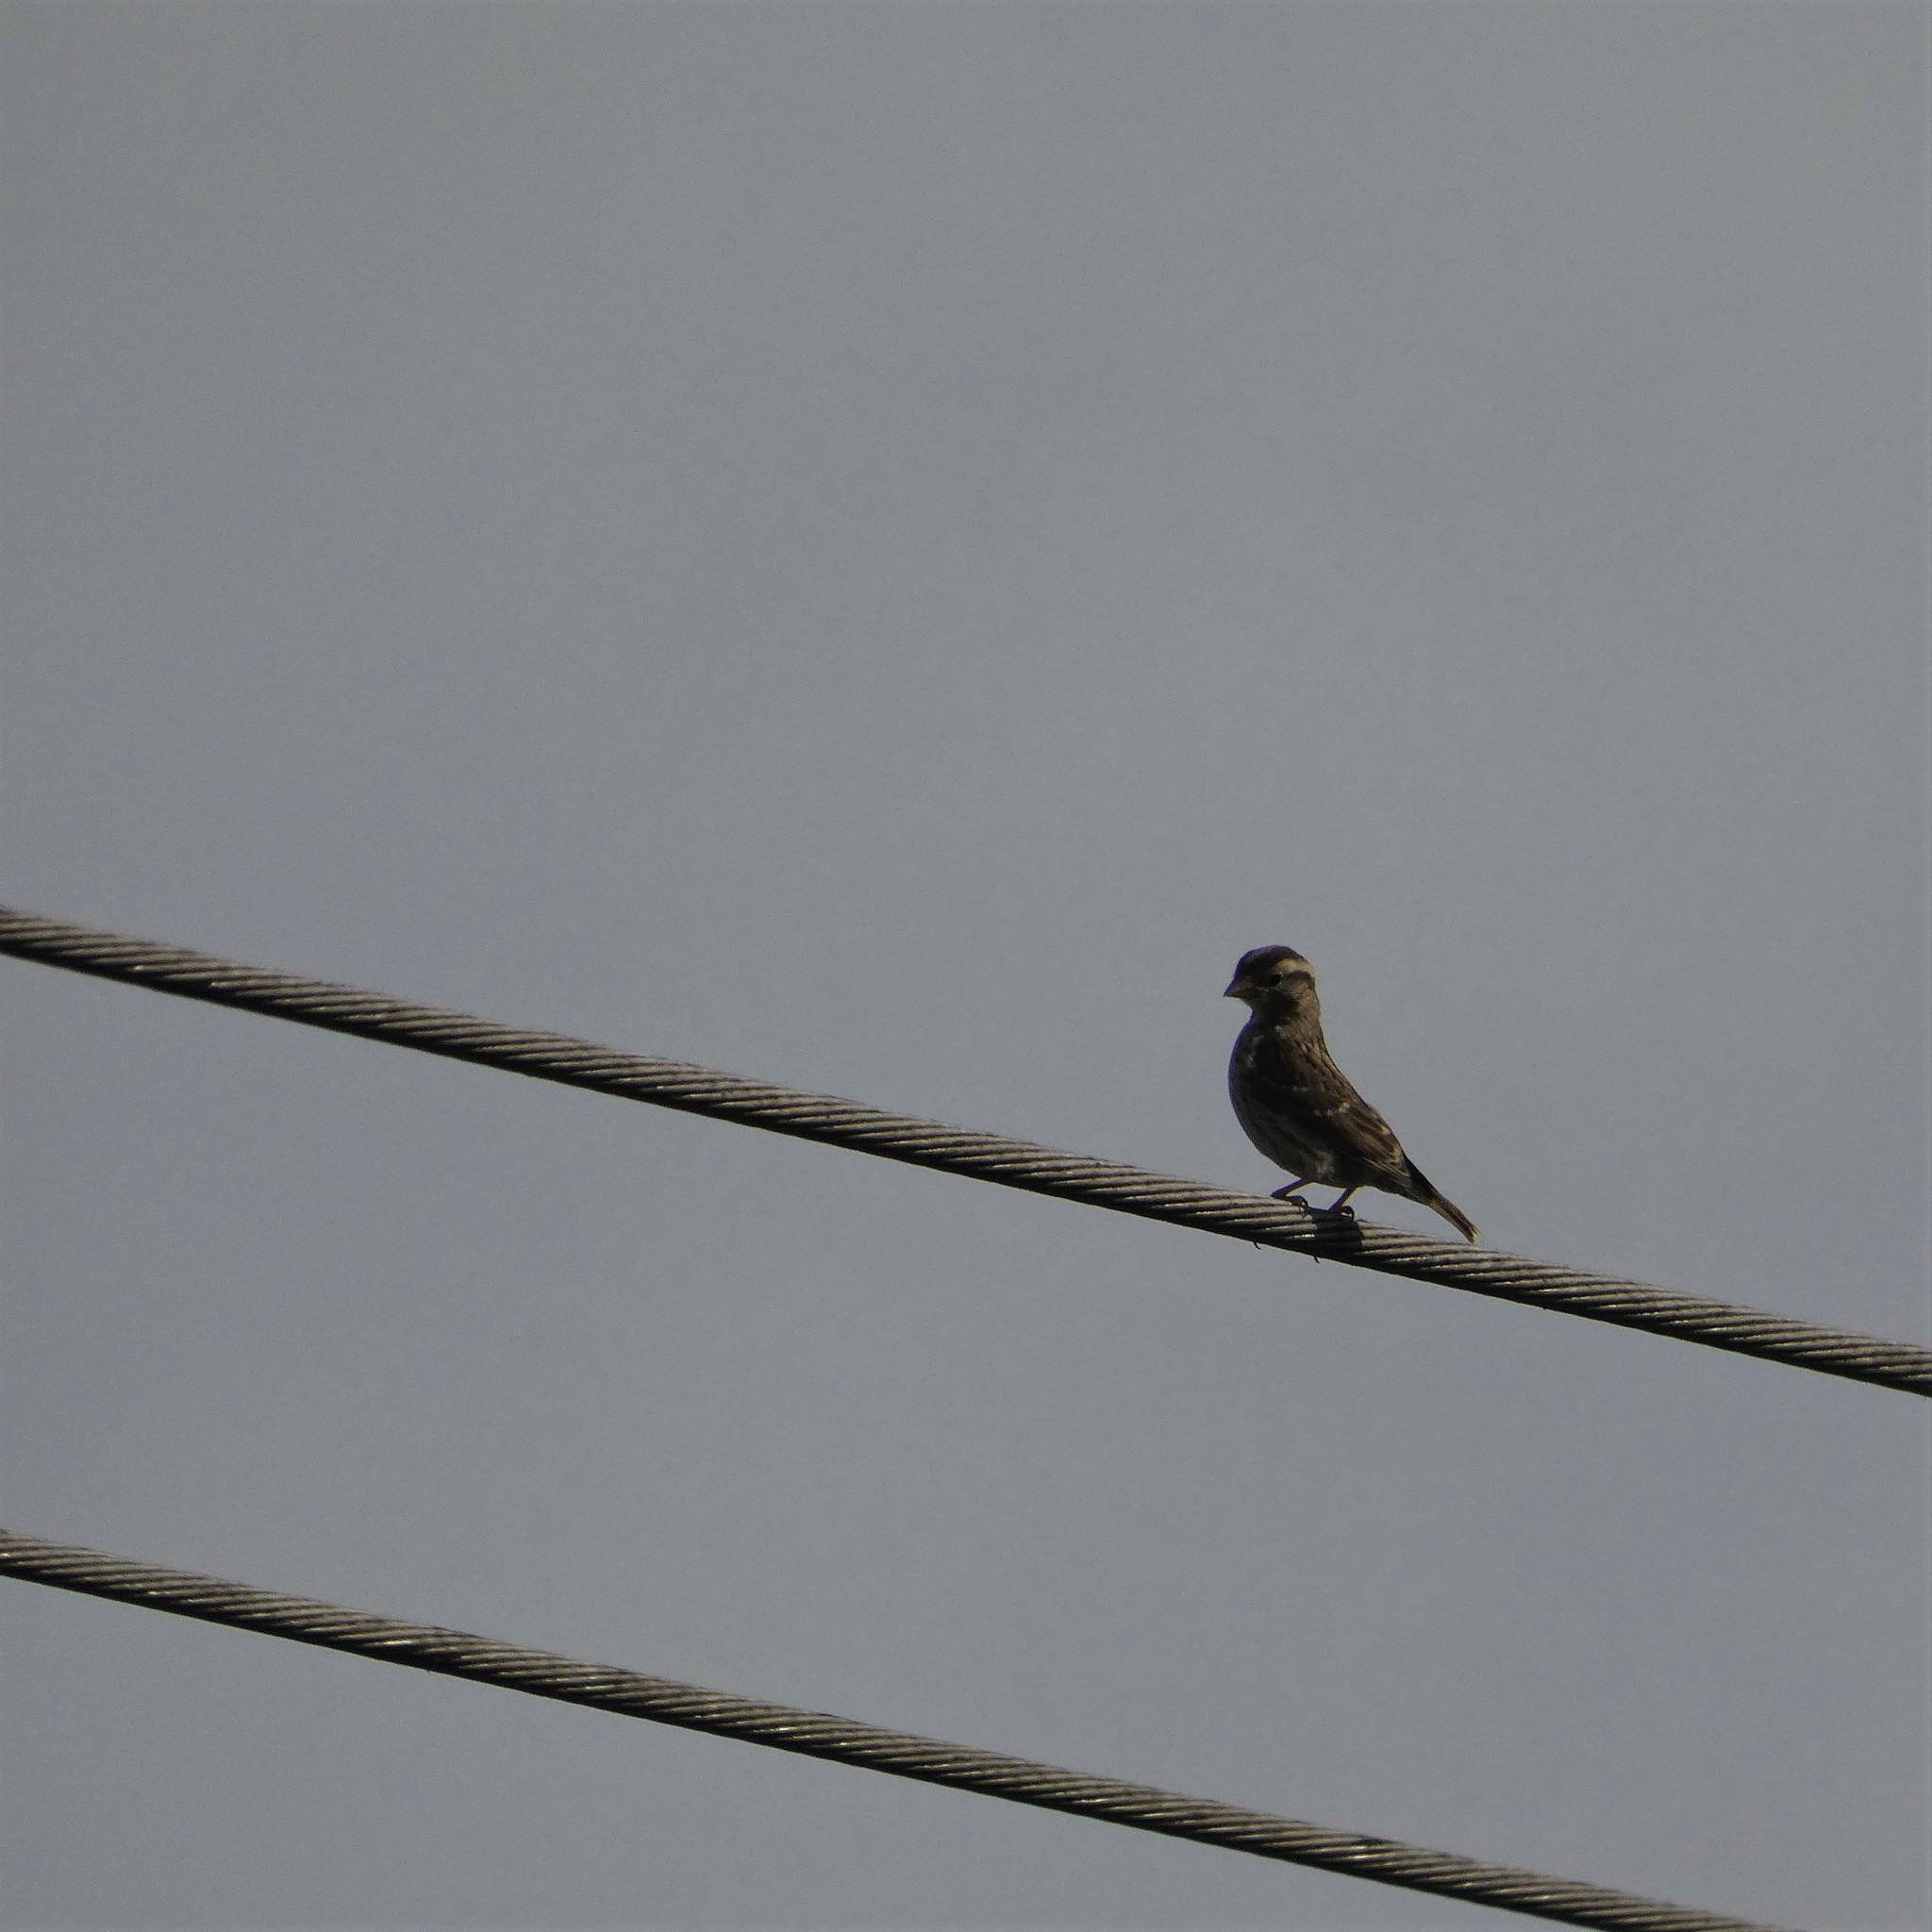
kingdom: Animalia
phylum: Chordata
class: Aves
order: Passeriformes
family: Passeridae
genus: Petronia
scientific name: Petronia petronia
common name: Rock sparrow
